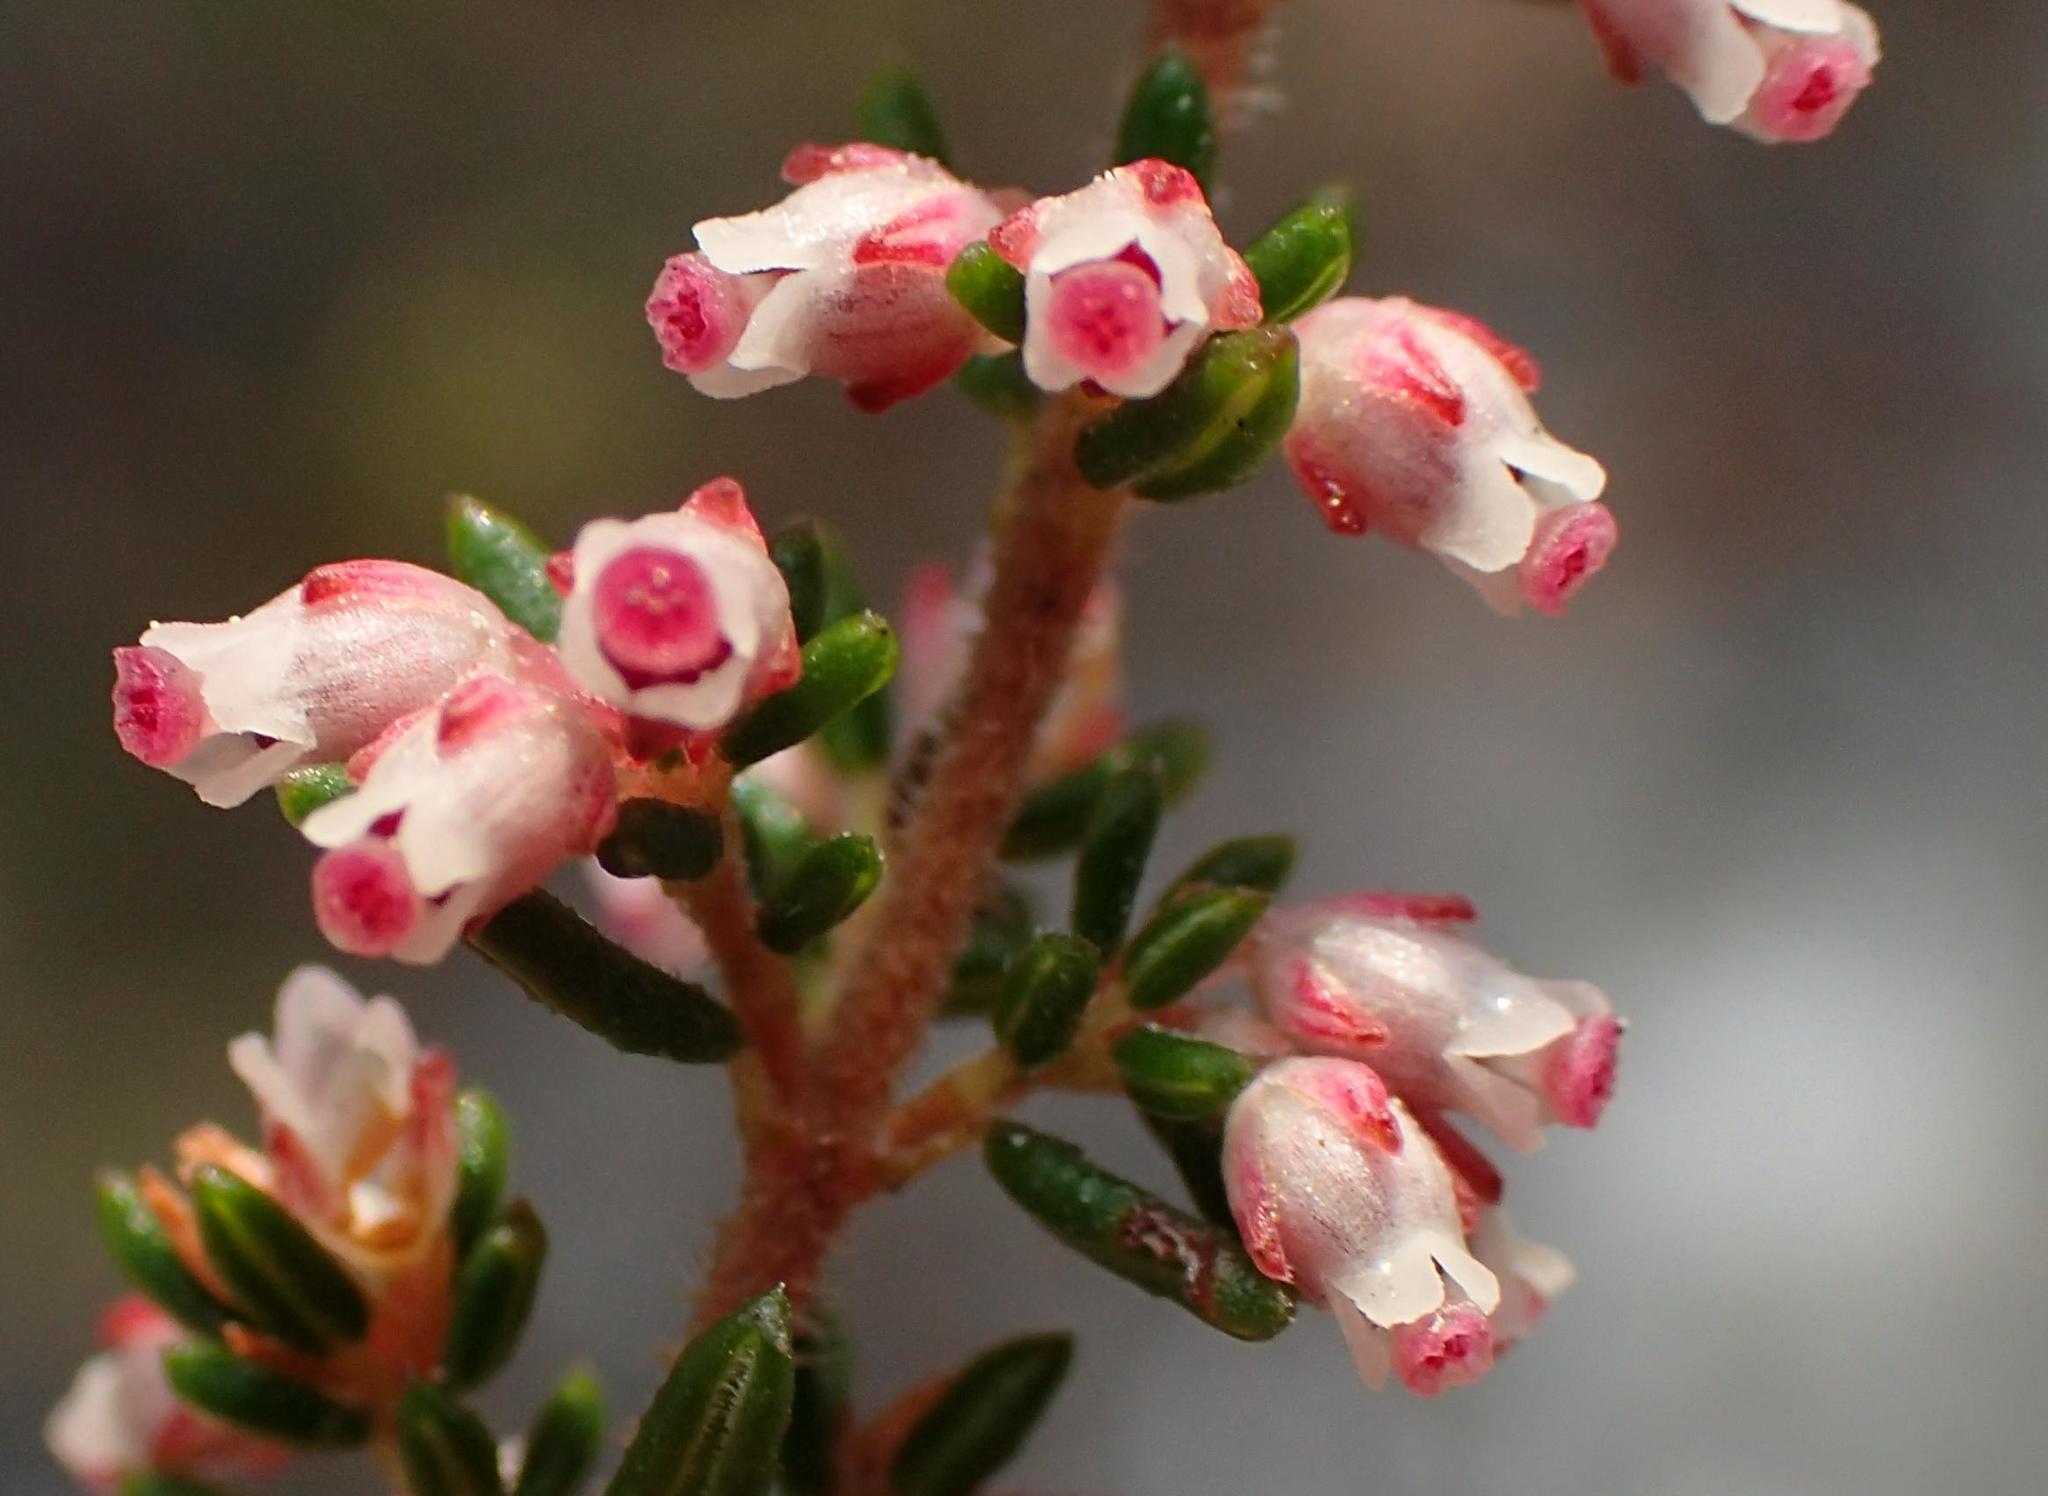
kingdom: Plantae
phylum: Tracheophyta
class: Magnoliopsida
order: Ericales
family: Ericaceae
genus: Erica
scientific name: Erica peltata
